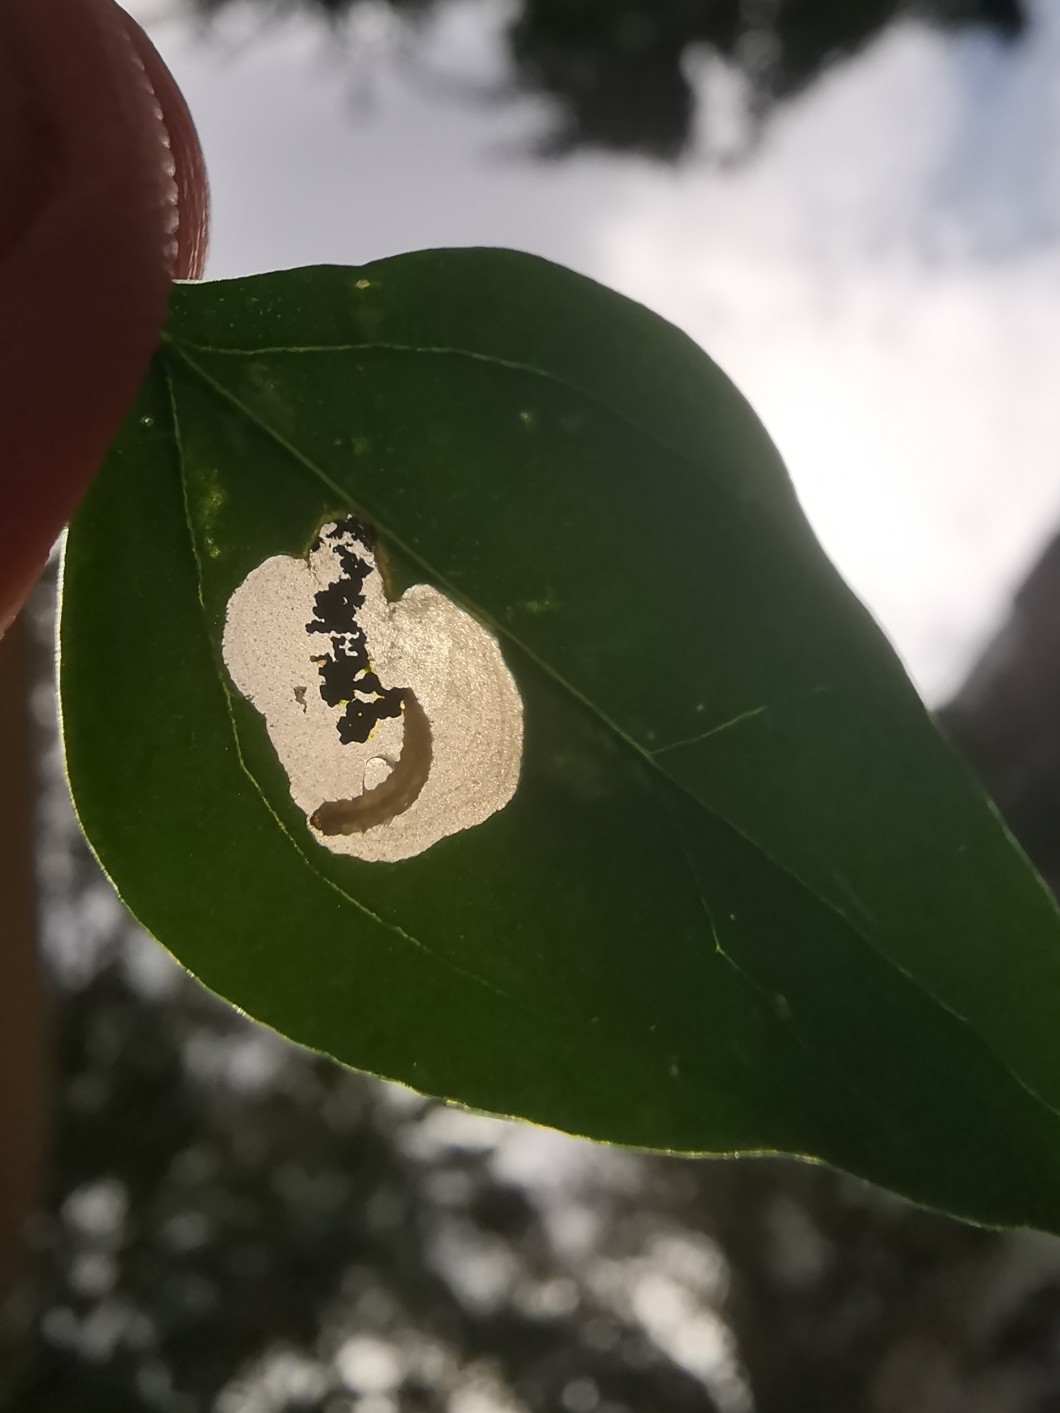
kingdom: Animalia
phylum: Arthropoda
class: Insecta
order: Lepidoptera
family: Gelechiidae
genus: Chrysoesthia
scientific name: Chrysoesthia sexguttella
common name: Moth
